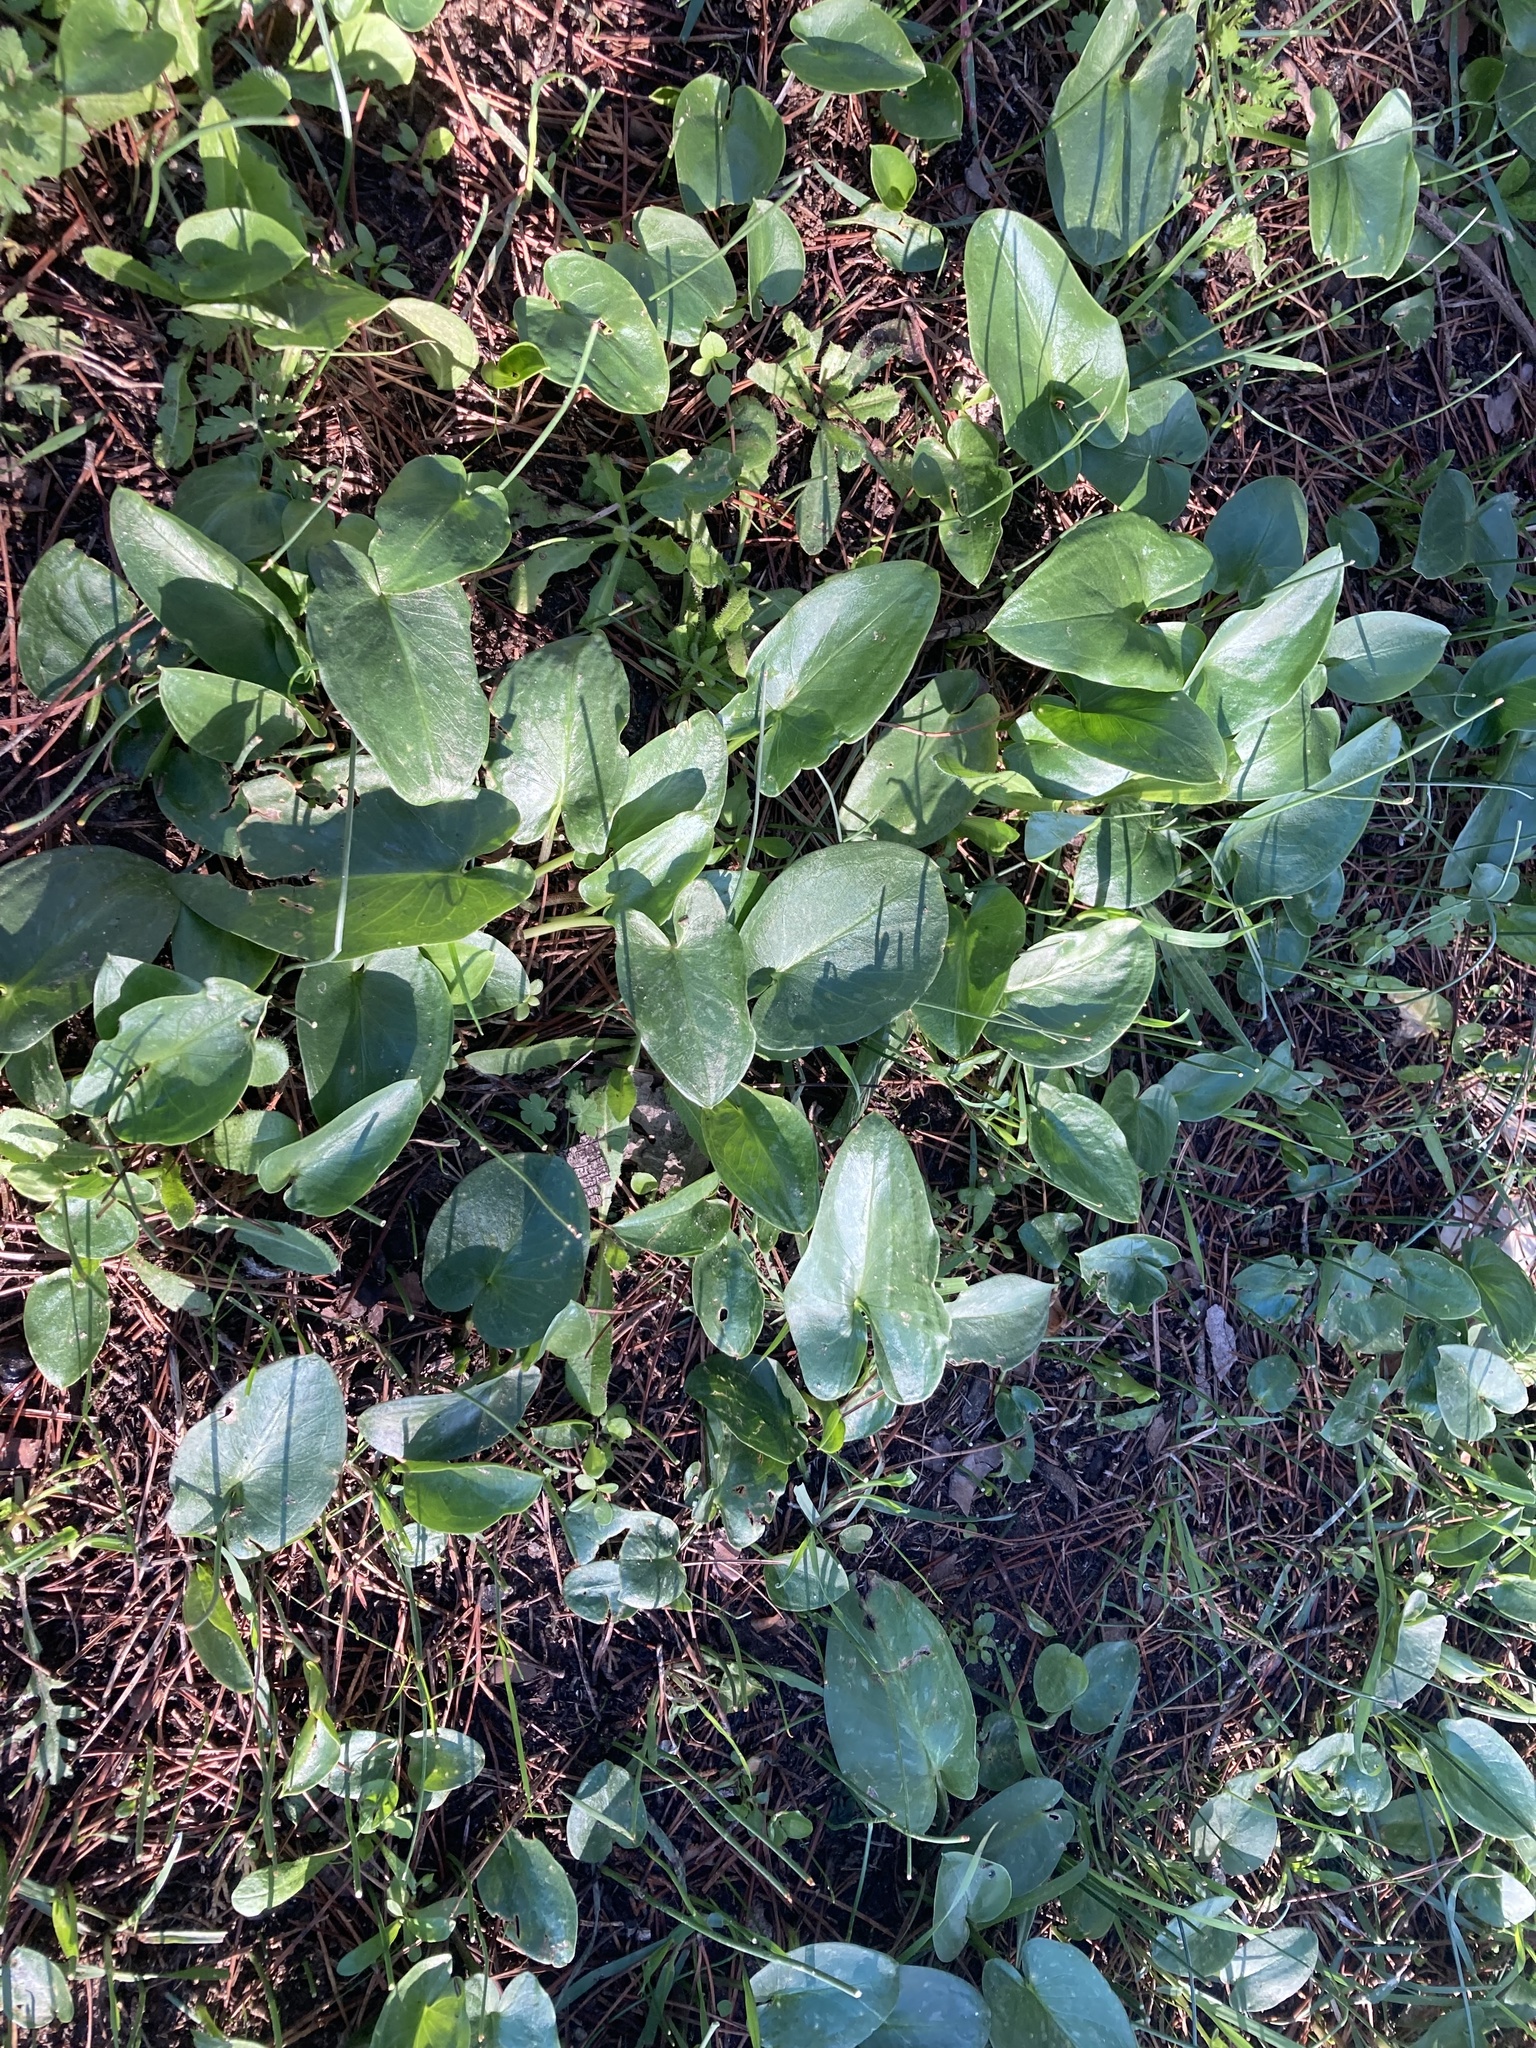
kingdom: Plantae
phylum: Tracheophyta
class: Liliopsida
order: Alismatales
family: Araceae
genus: Arisarum
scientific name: Arisarum simorrhinum
